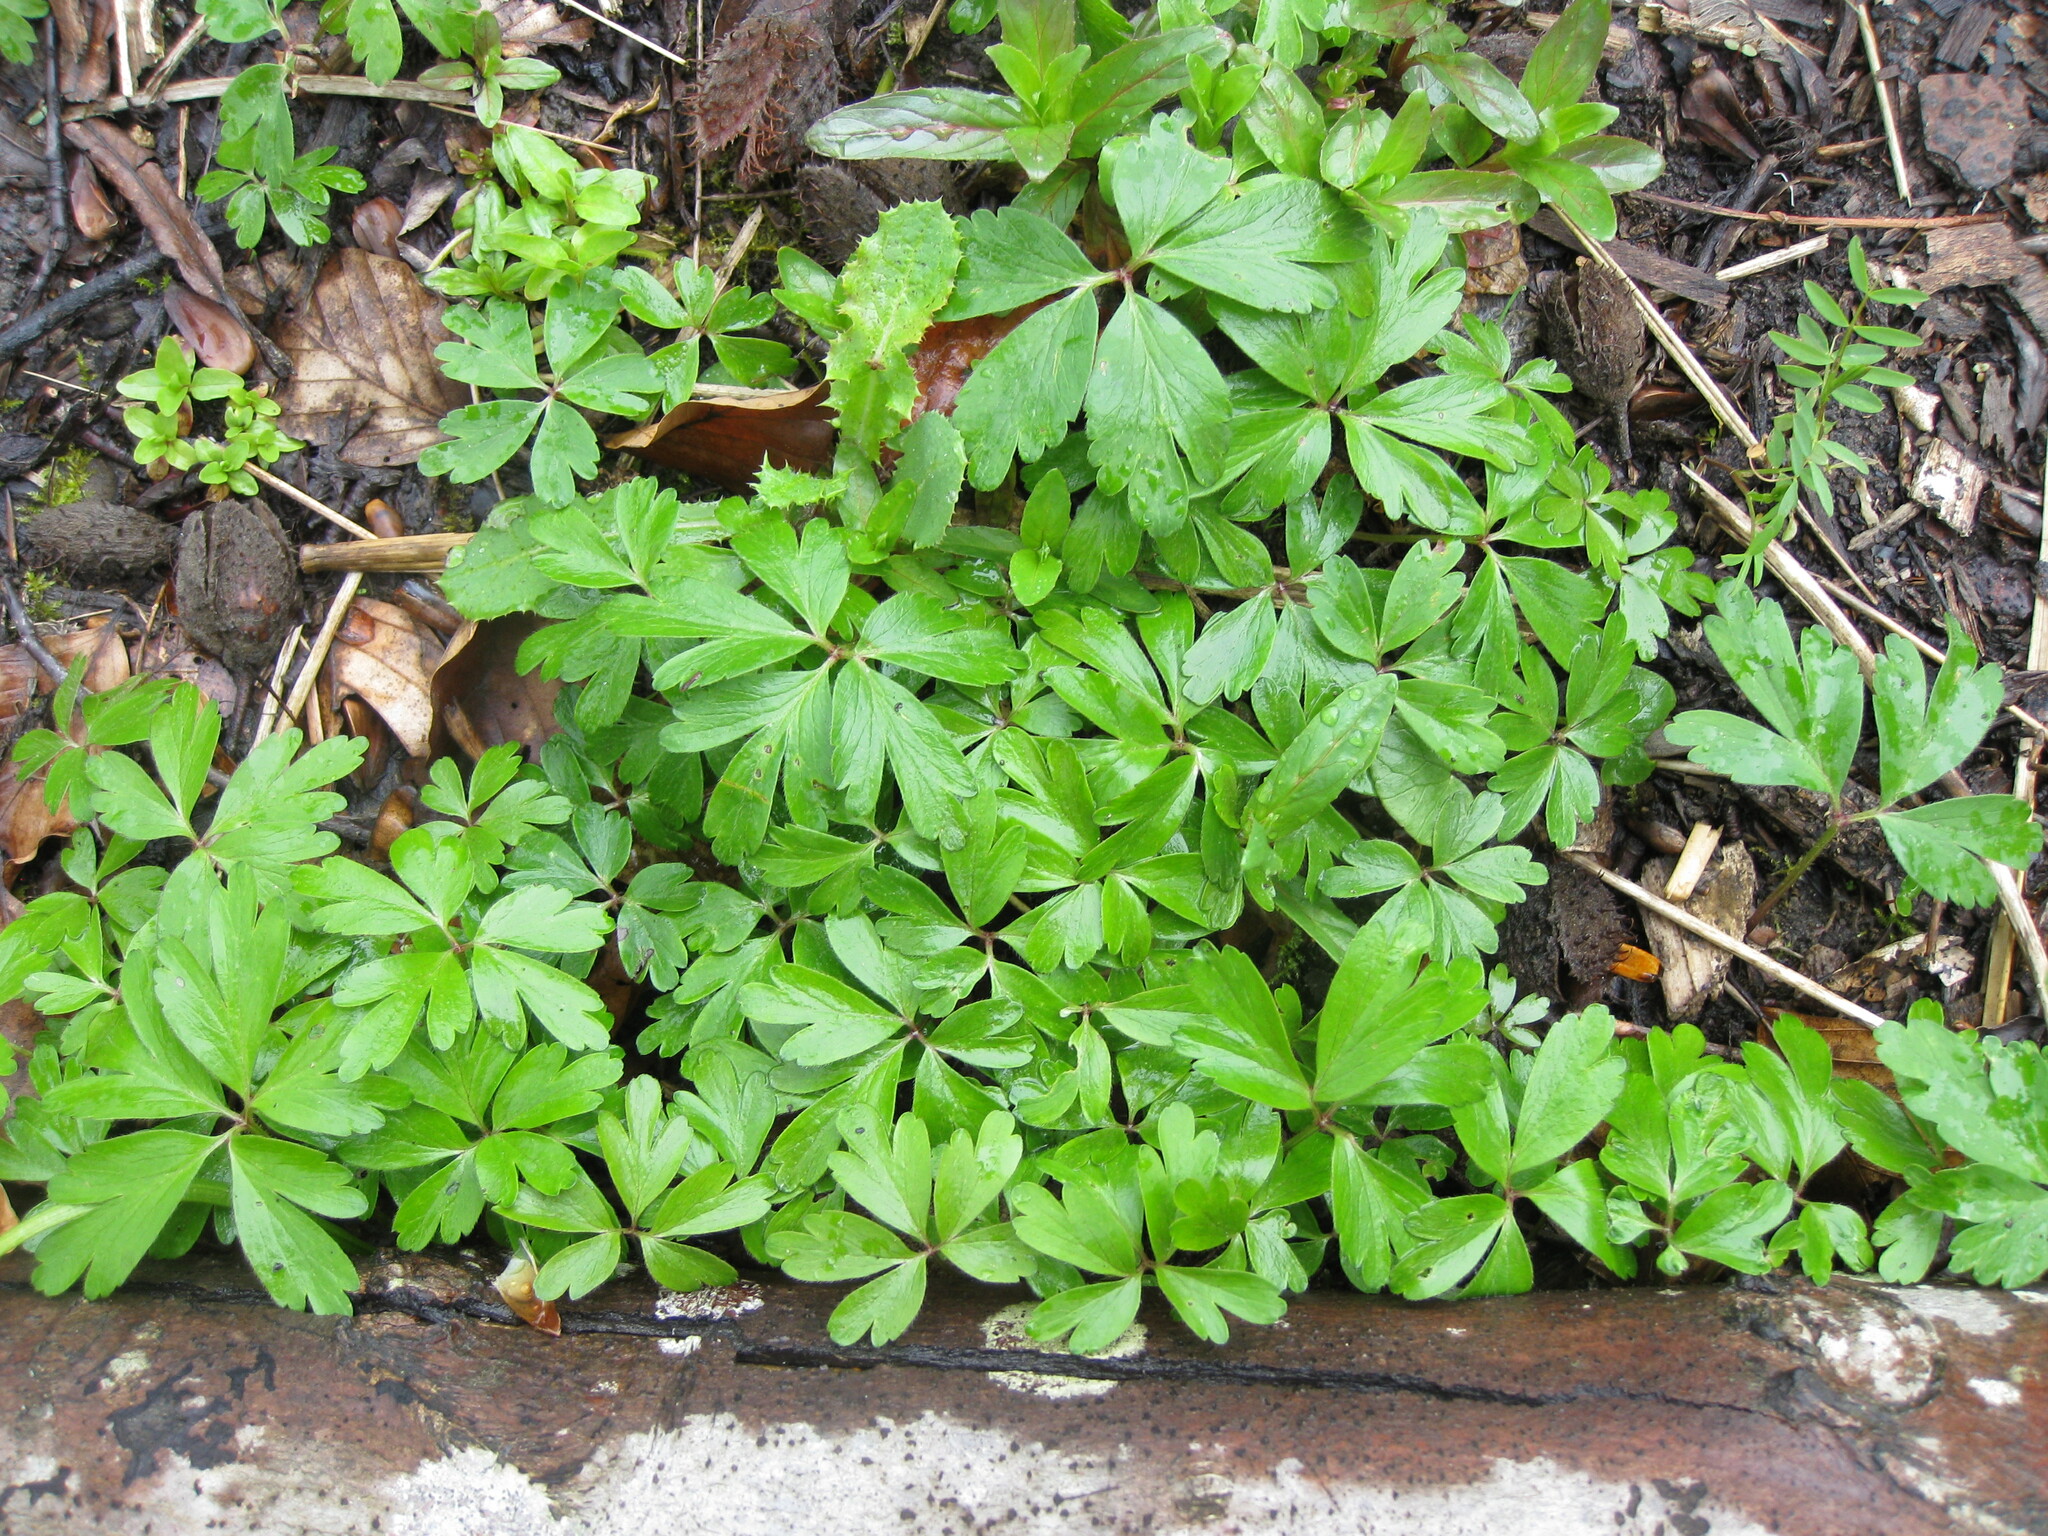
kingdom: Plantae
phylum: Tracheophyta
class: Magnoliopsida
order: Ranunculales
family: Ranunculaceae
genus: Anemone
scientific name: Anemone nemorosa
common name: Wood anemone
